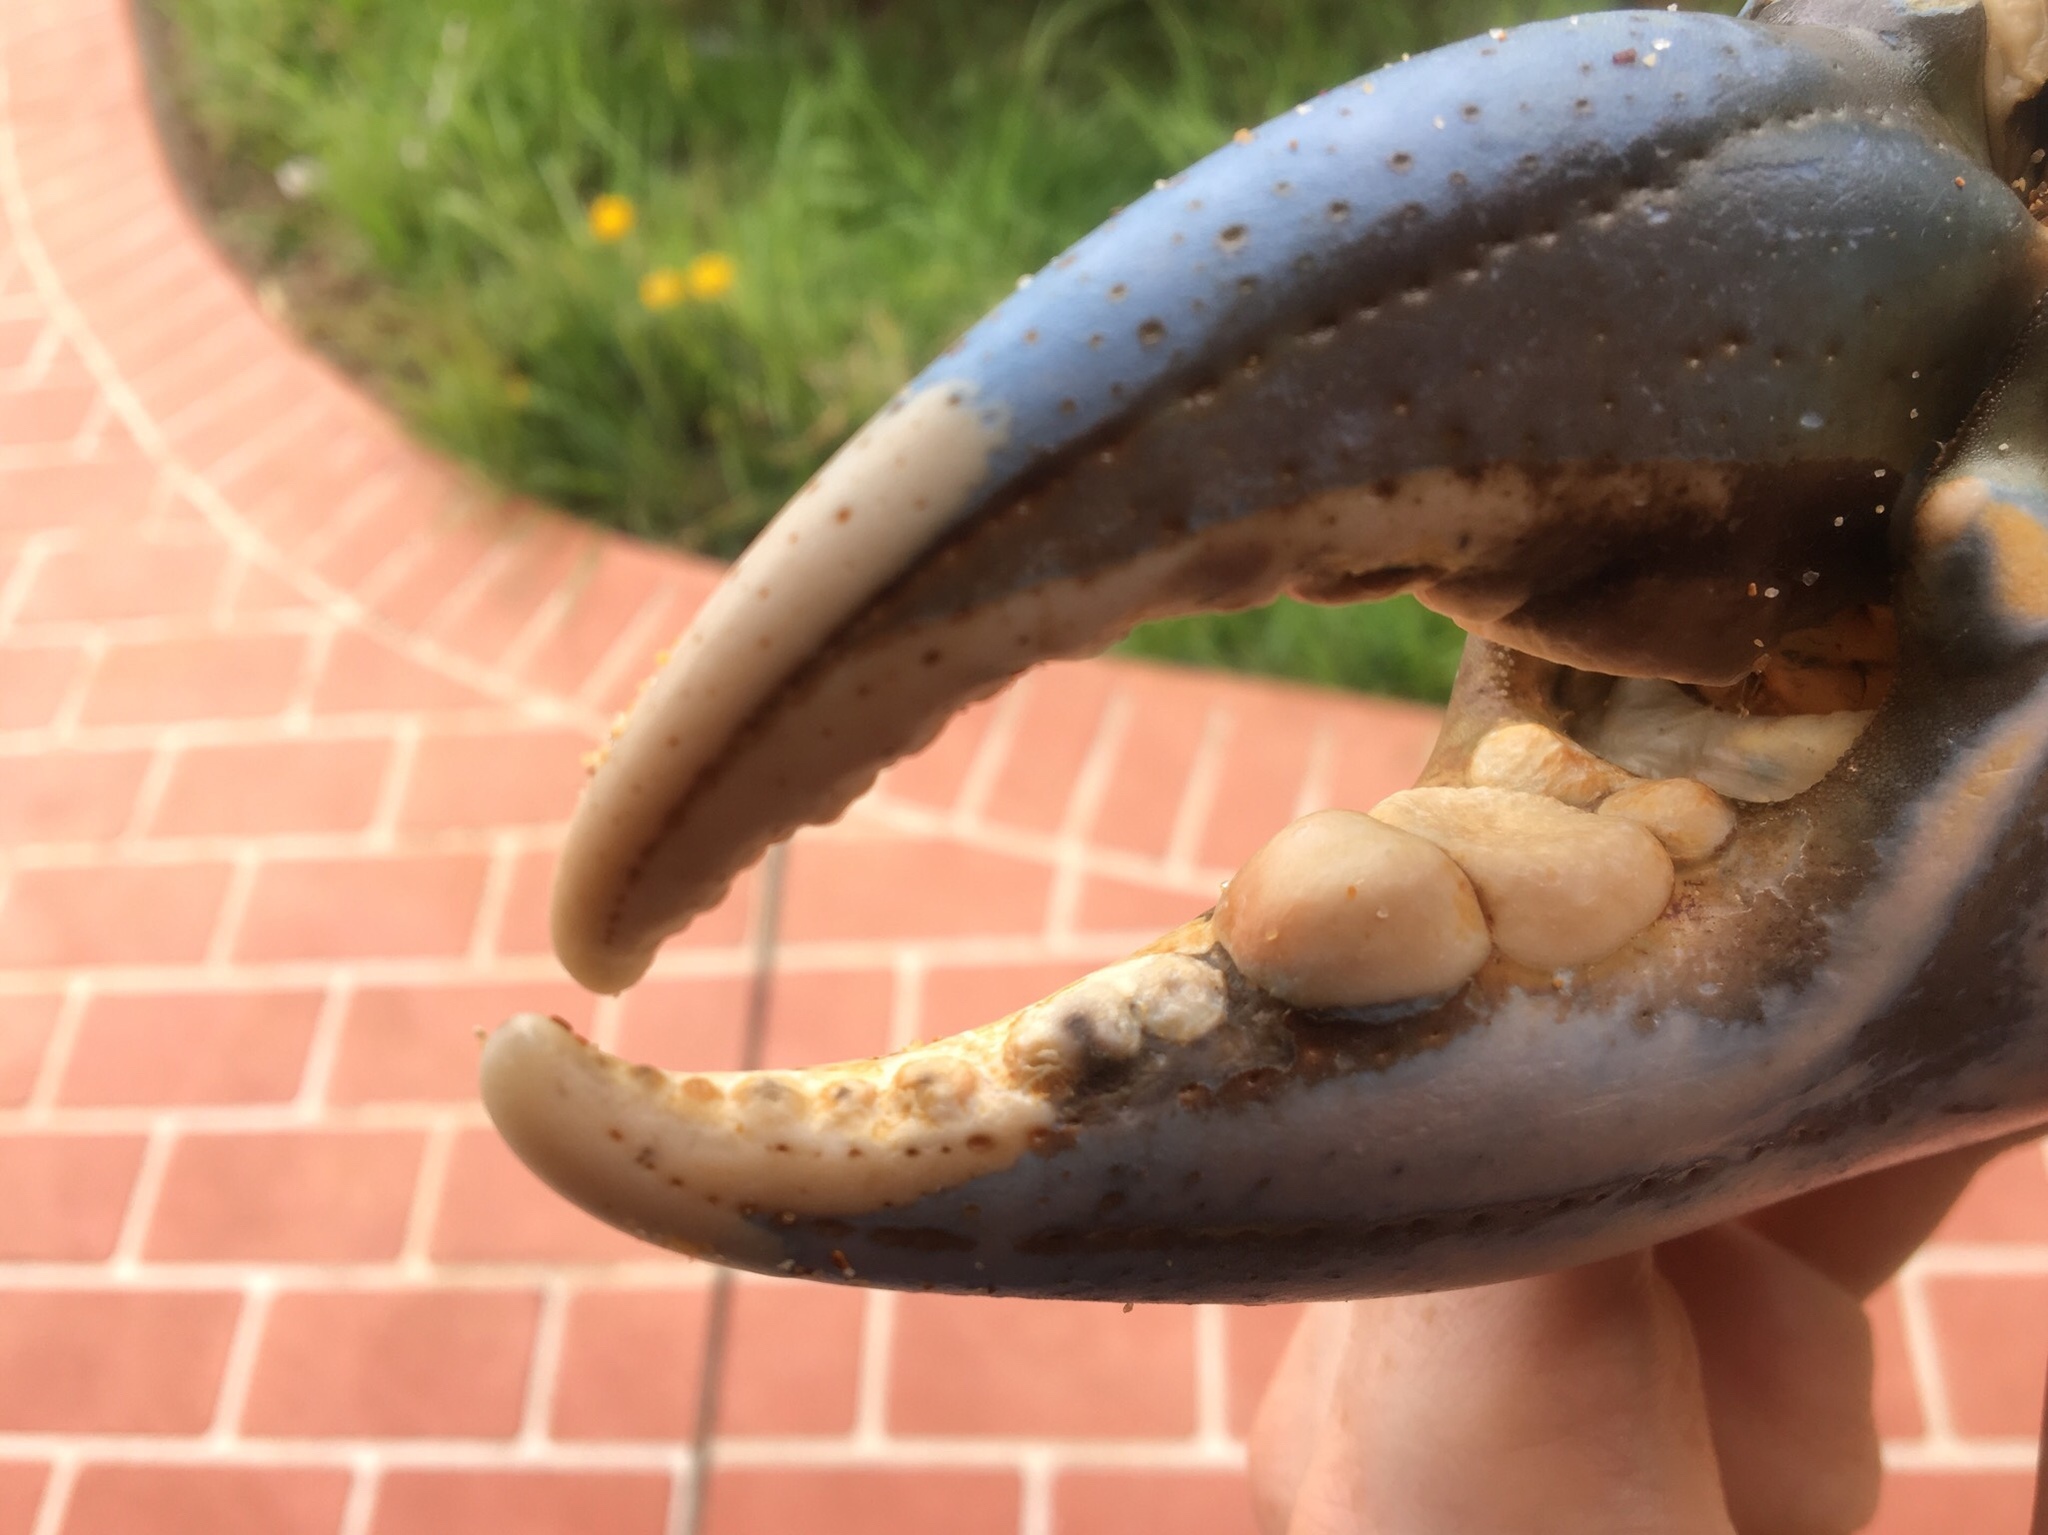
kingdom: Animalia
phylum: Arthropoda
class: Malacostraca
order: Decapoda
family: Portunidae
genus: Scylla
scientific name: Scylla serrata
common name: Giant mud crab
